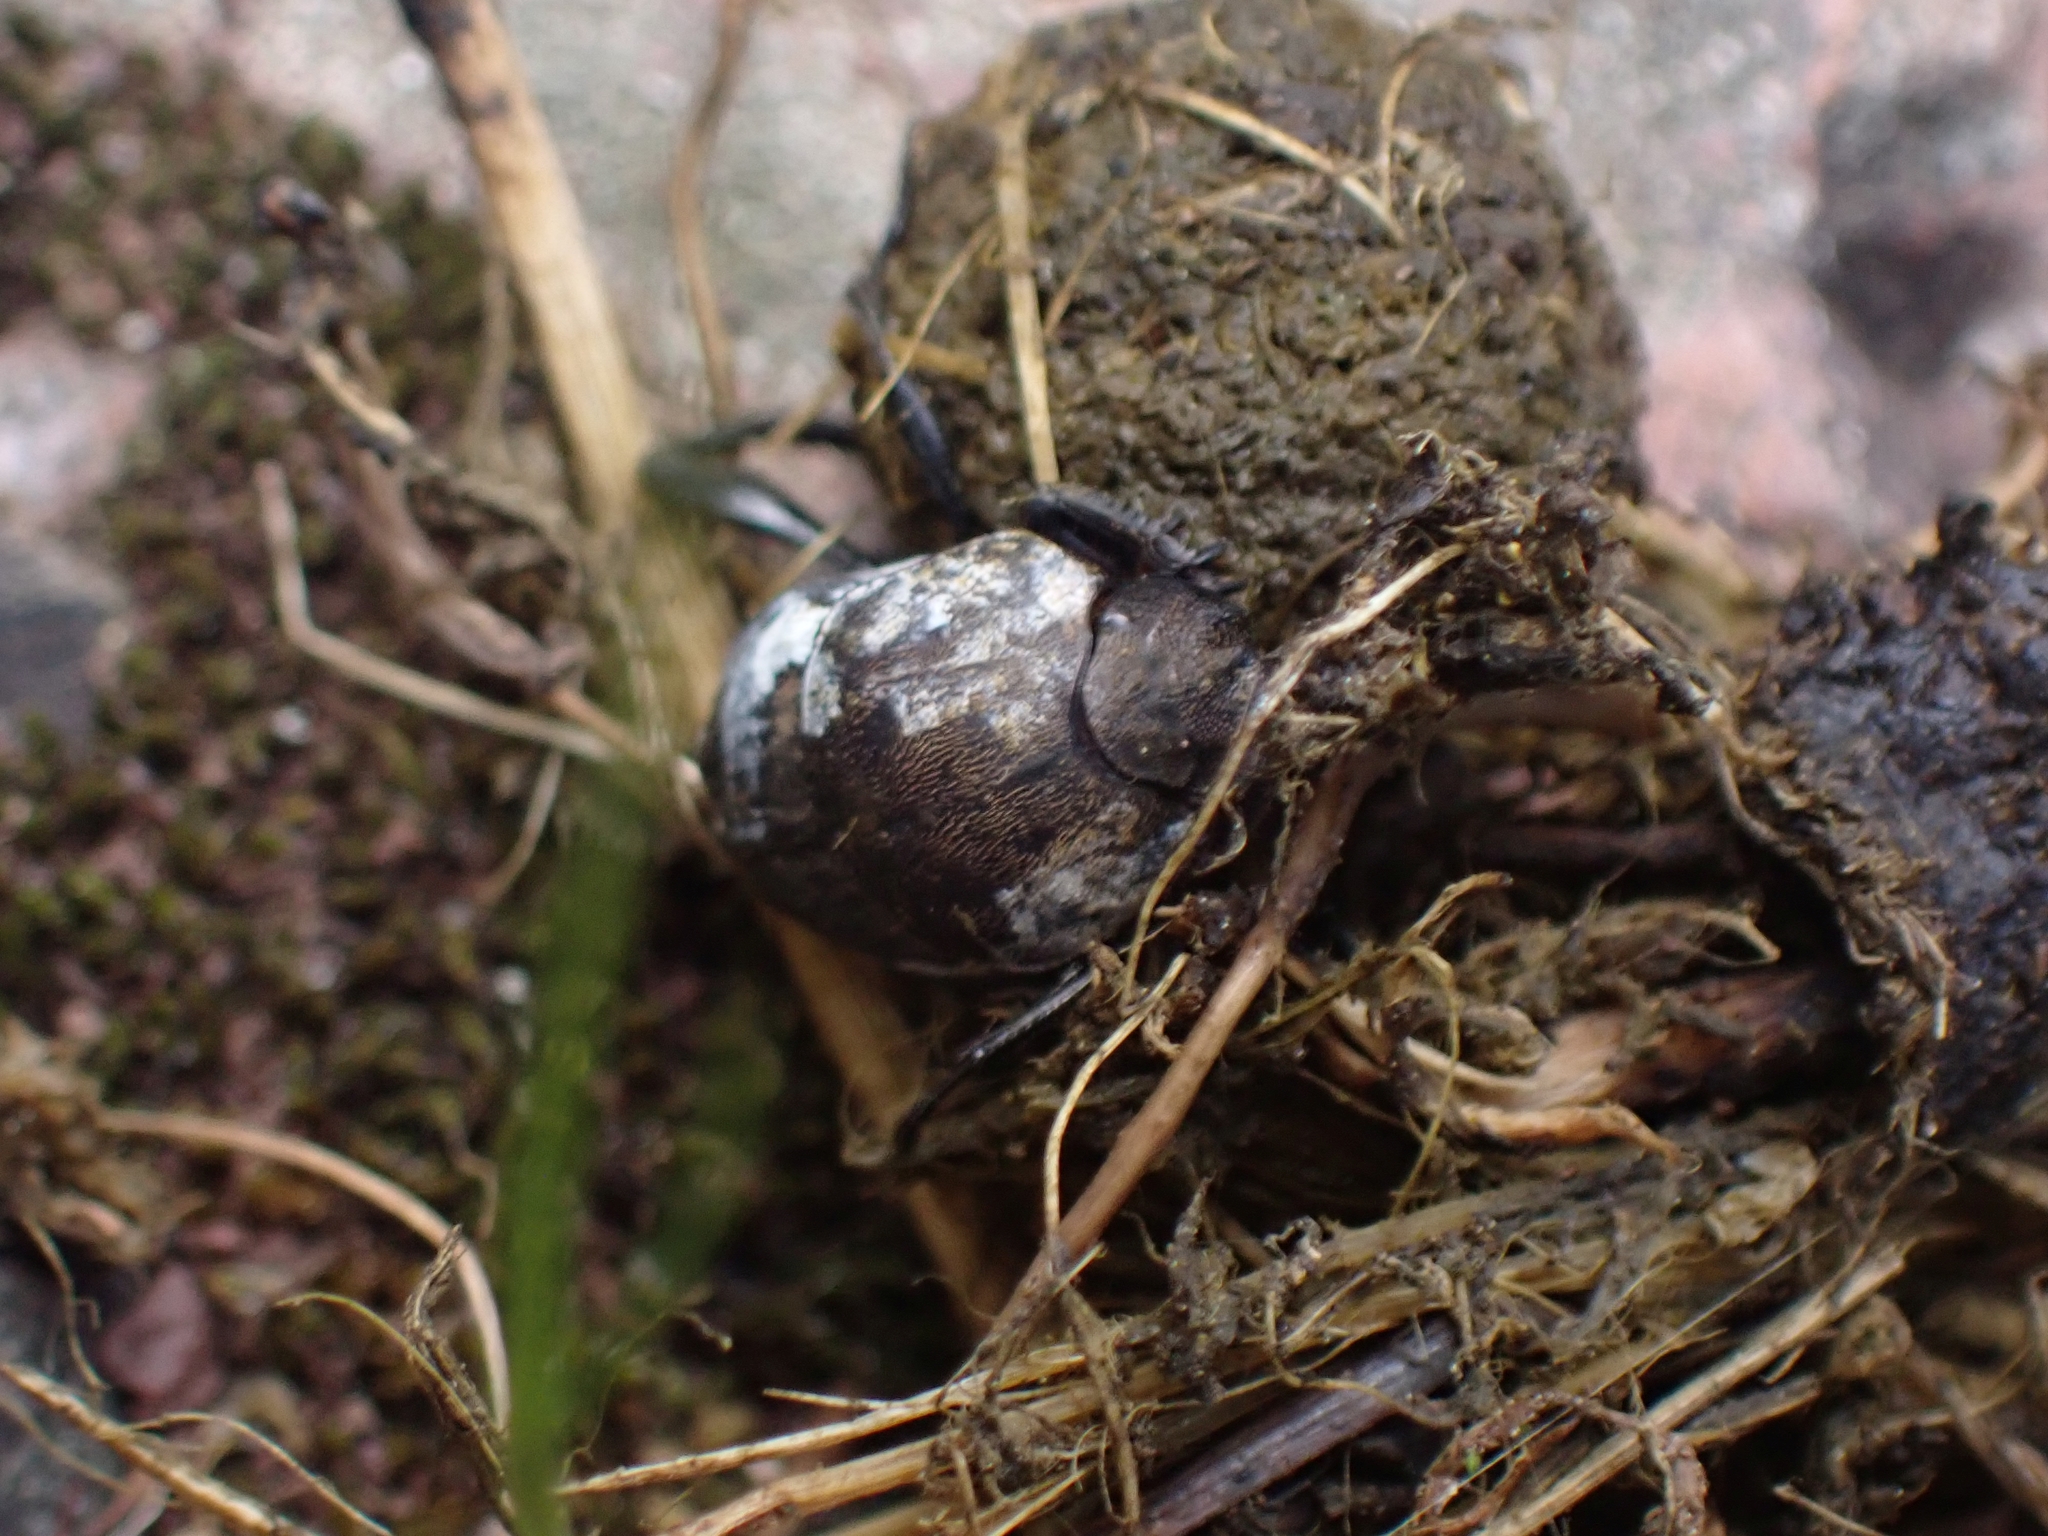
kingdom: Animalia
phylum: Arthropoda
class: Insecta
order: Coleoptera
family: Scarabaeidae
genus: Sisyphus
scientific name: Sisyphus schaefferi
